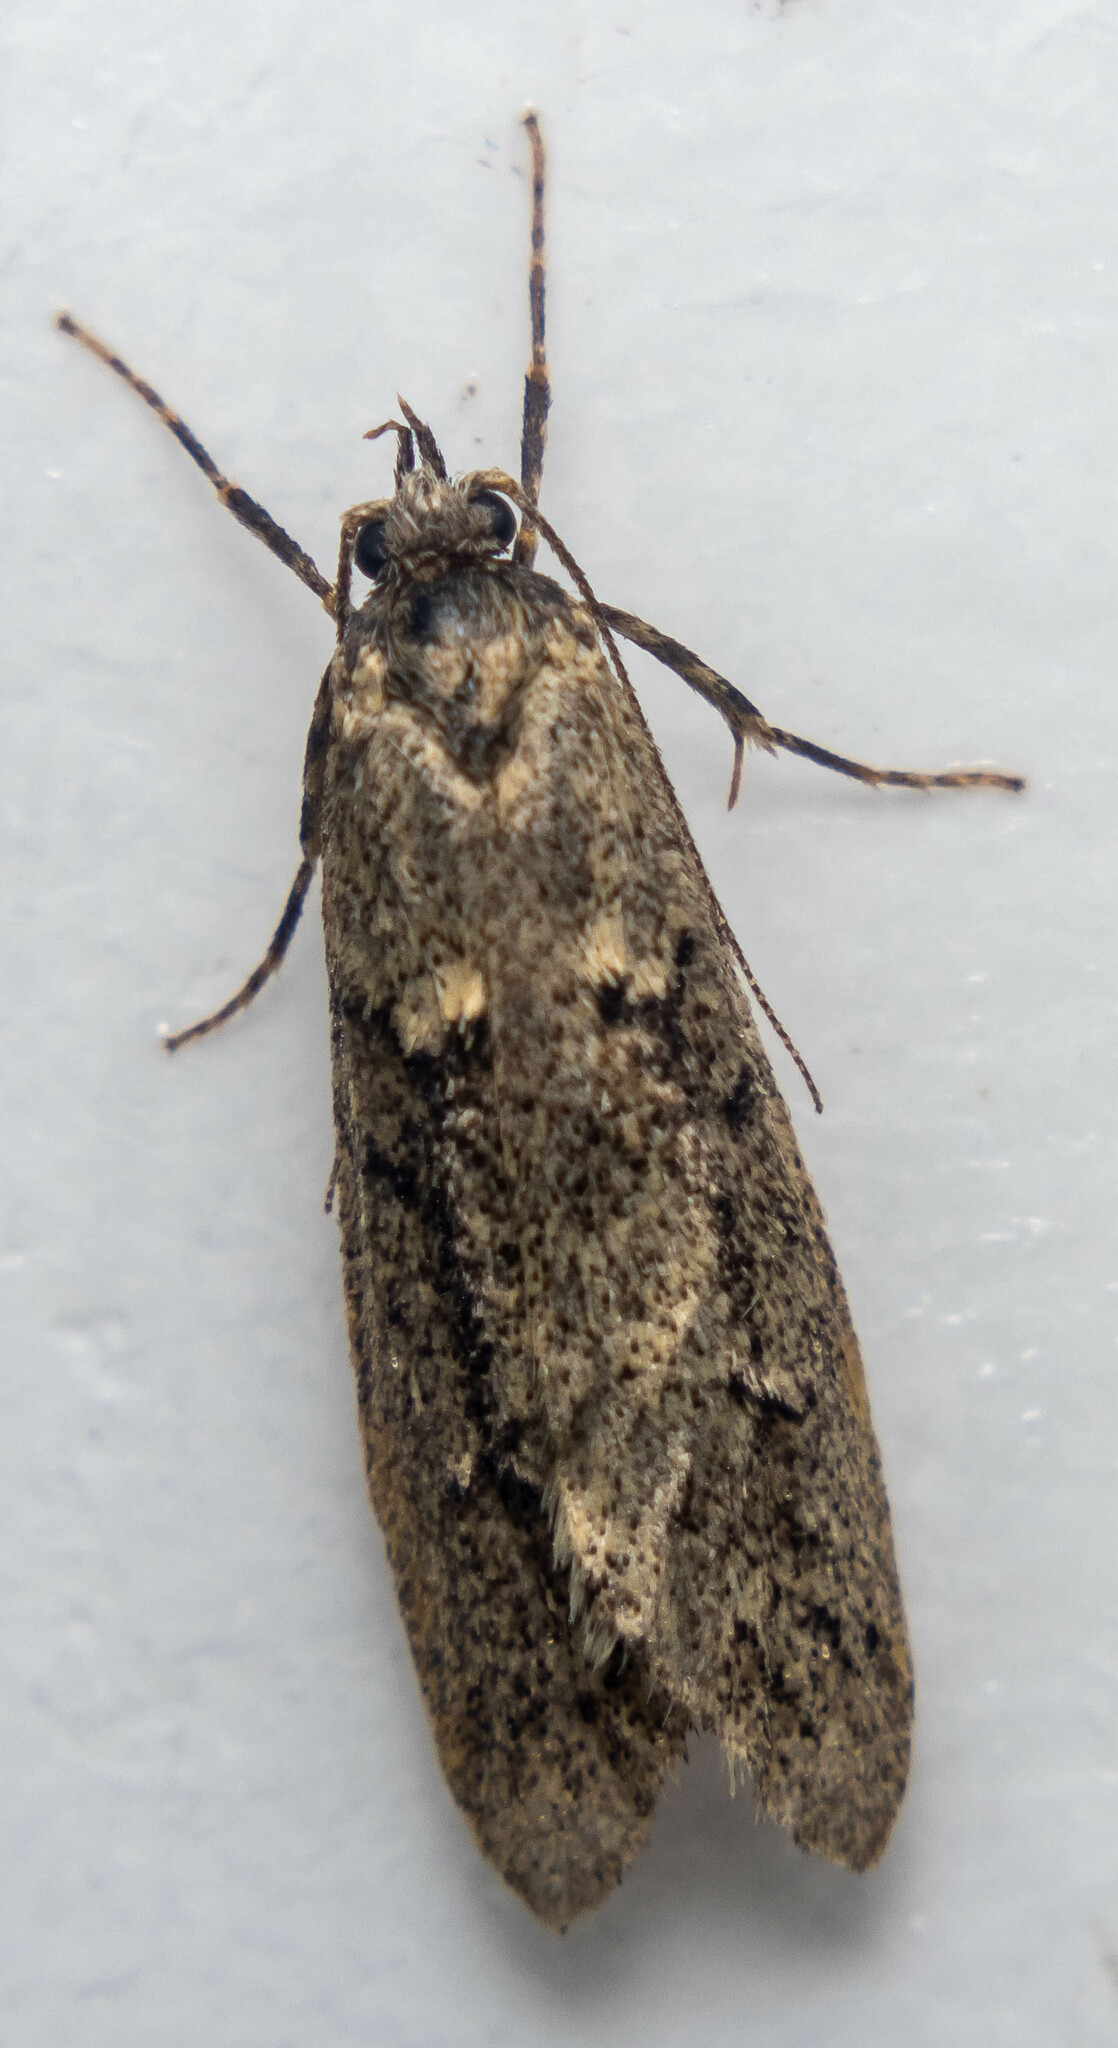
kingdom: Animalia
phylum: Arthropoda
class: Insecta
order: Lepidoptera
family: Lypusidae
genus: Diurnea
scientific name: Diurnea fagella
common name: March tubic
